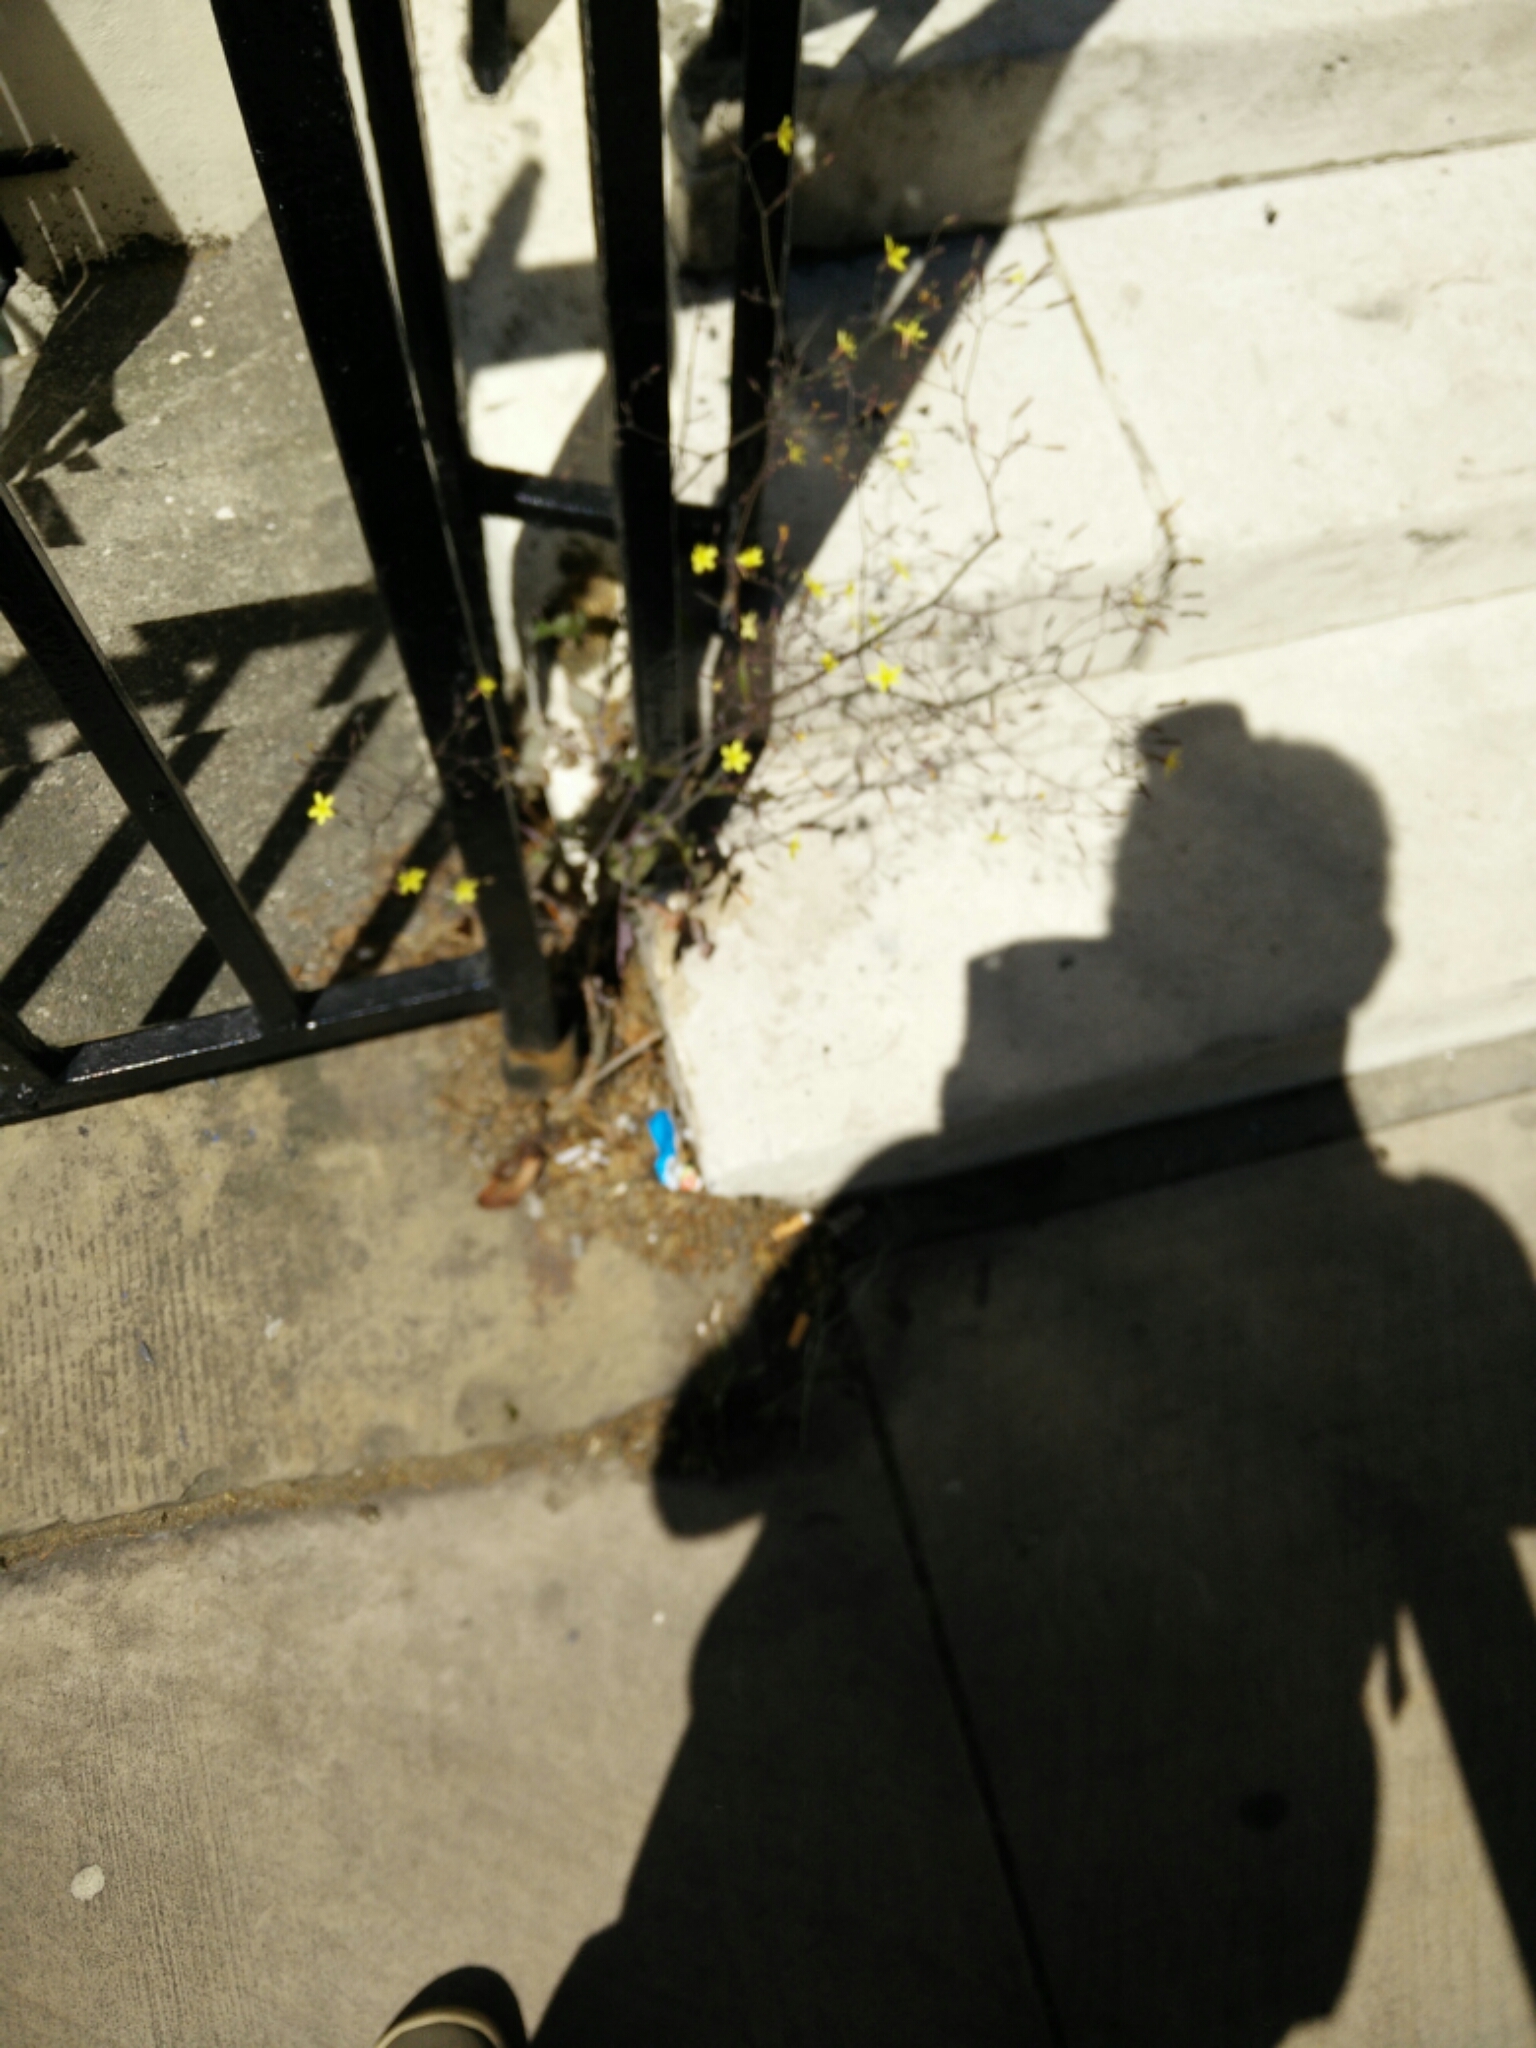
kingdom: Plantae
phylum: Tracheophyta
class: Magnoliopsida
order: Asterales
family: Asteraceae
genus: Mycelis
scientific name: Mycelis muralis
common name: Wall lettuce
